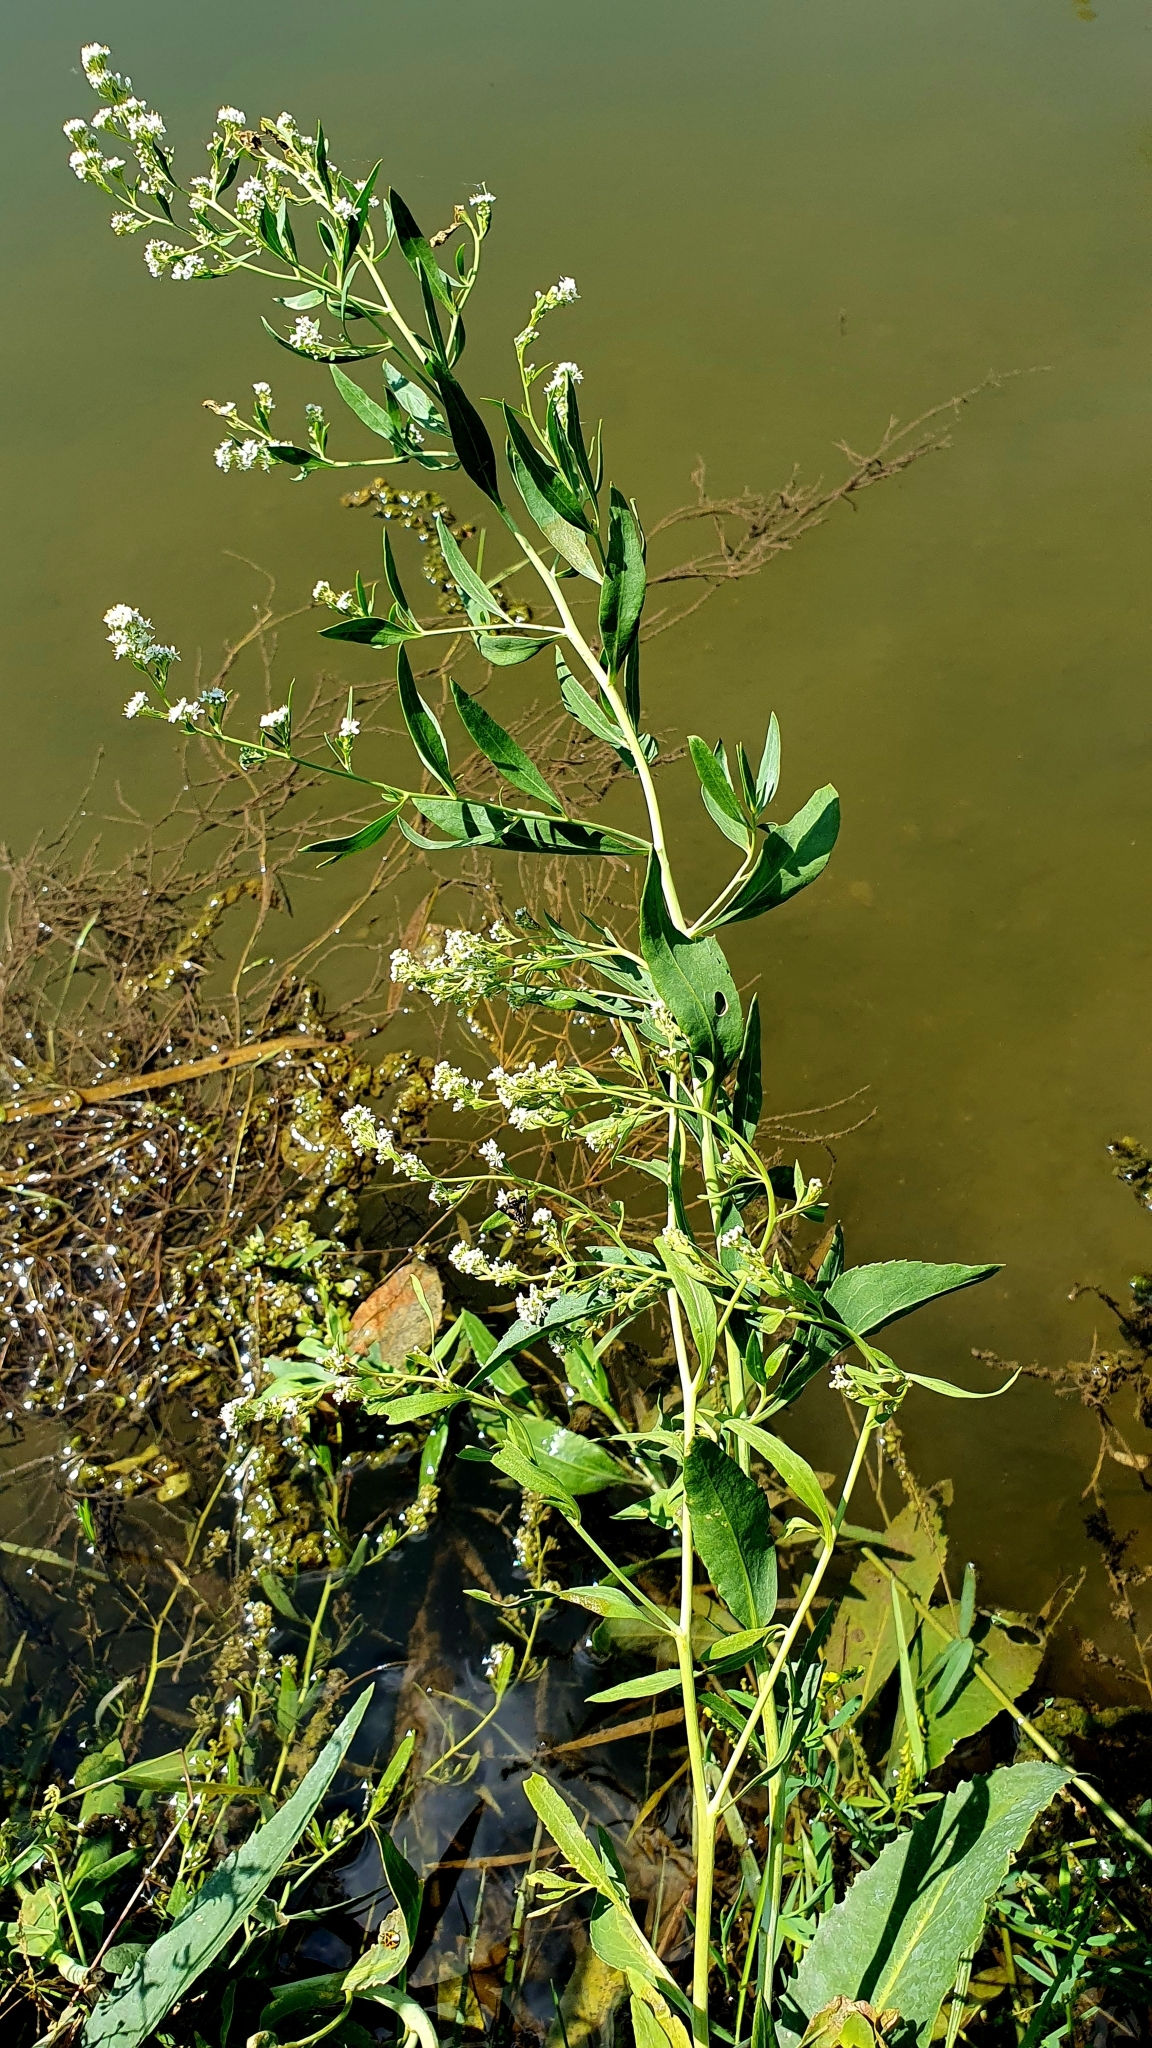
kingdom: Plantae
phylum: Tracheophyta
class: Magnoliopsida
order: Brassicales
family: Brassicaceae
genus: Lepidium
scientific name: Lepidium latifolium
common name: Dittander
